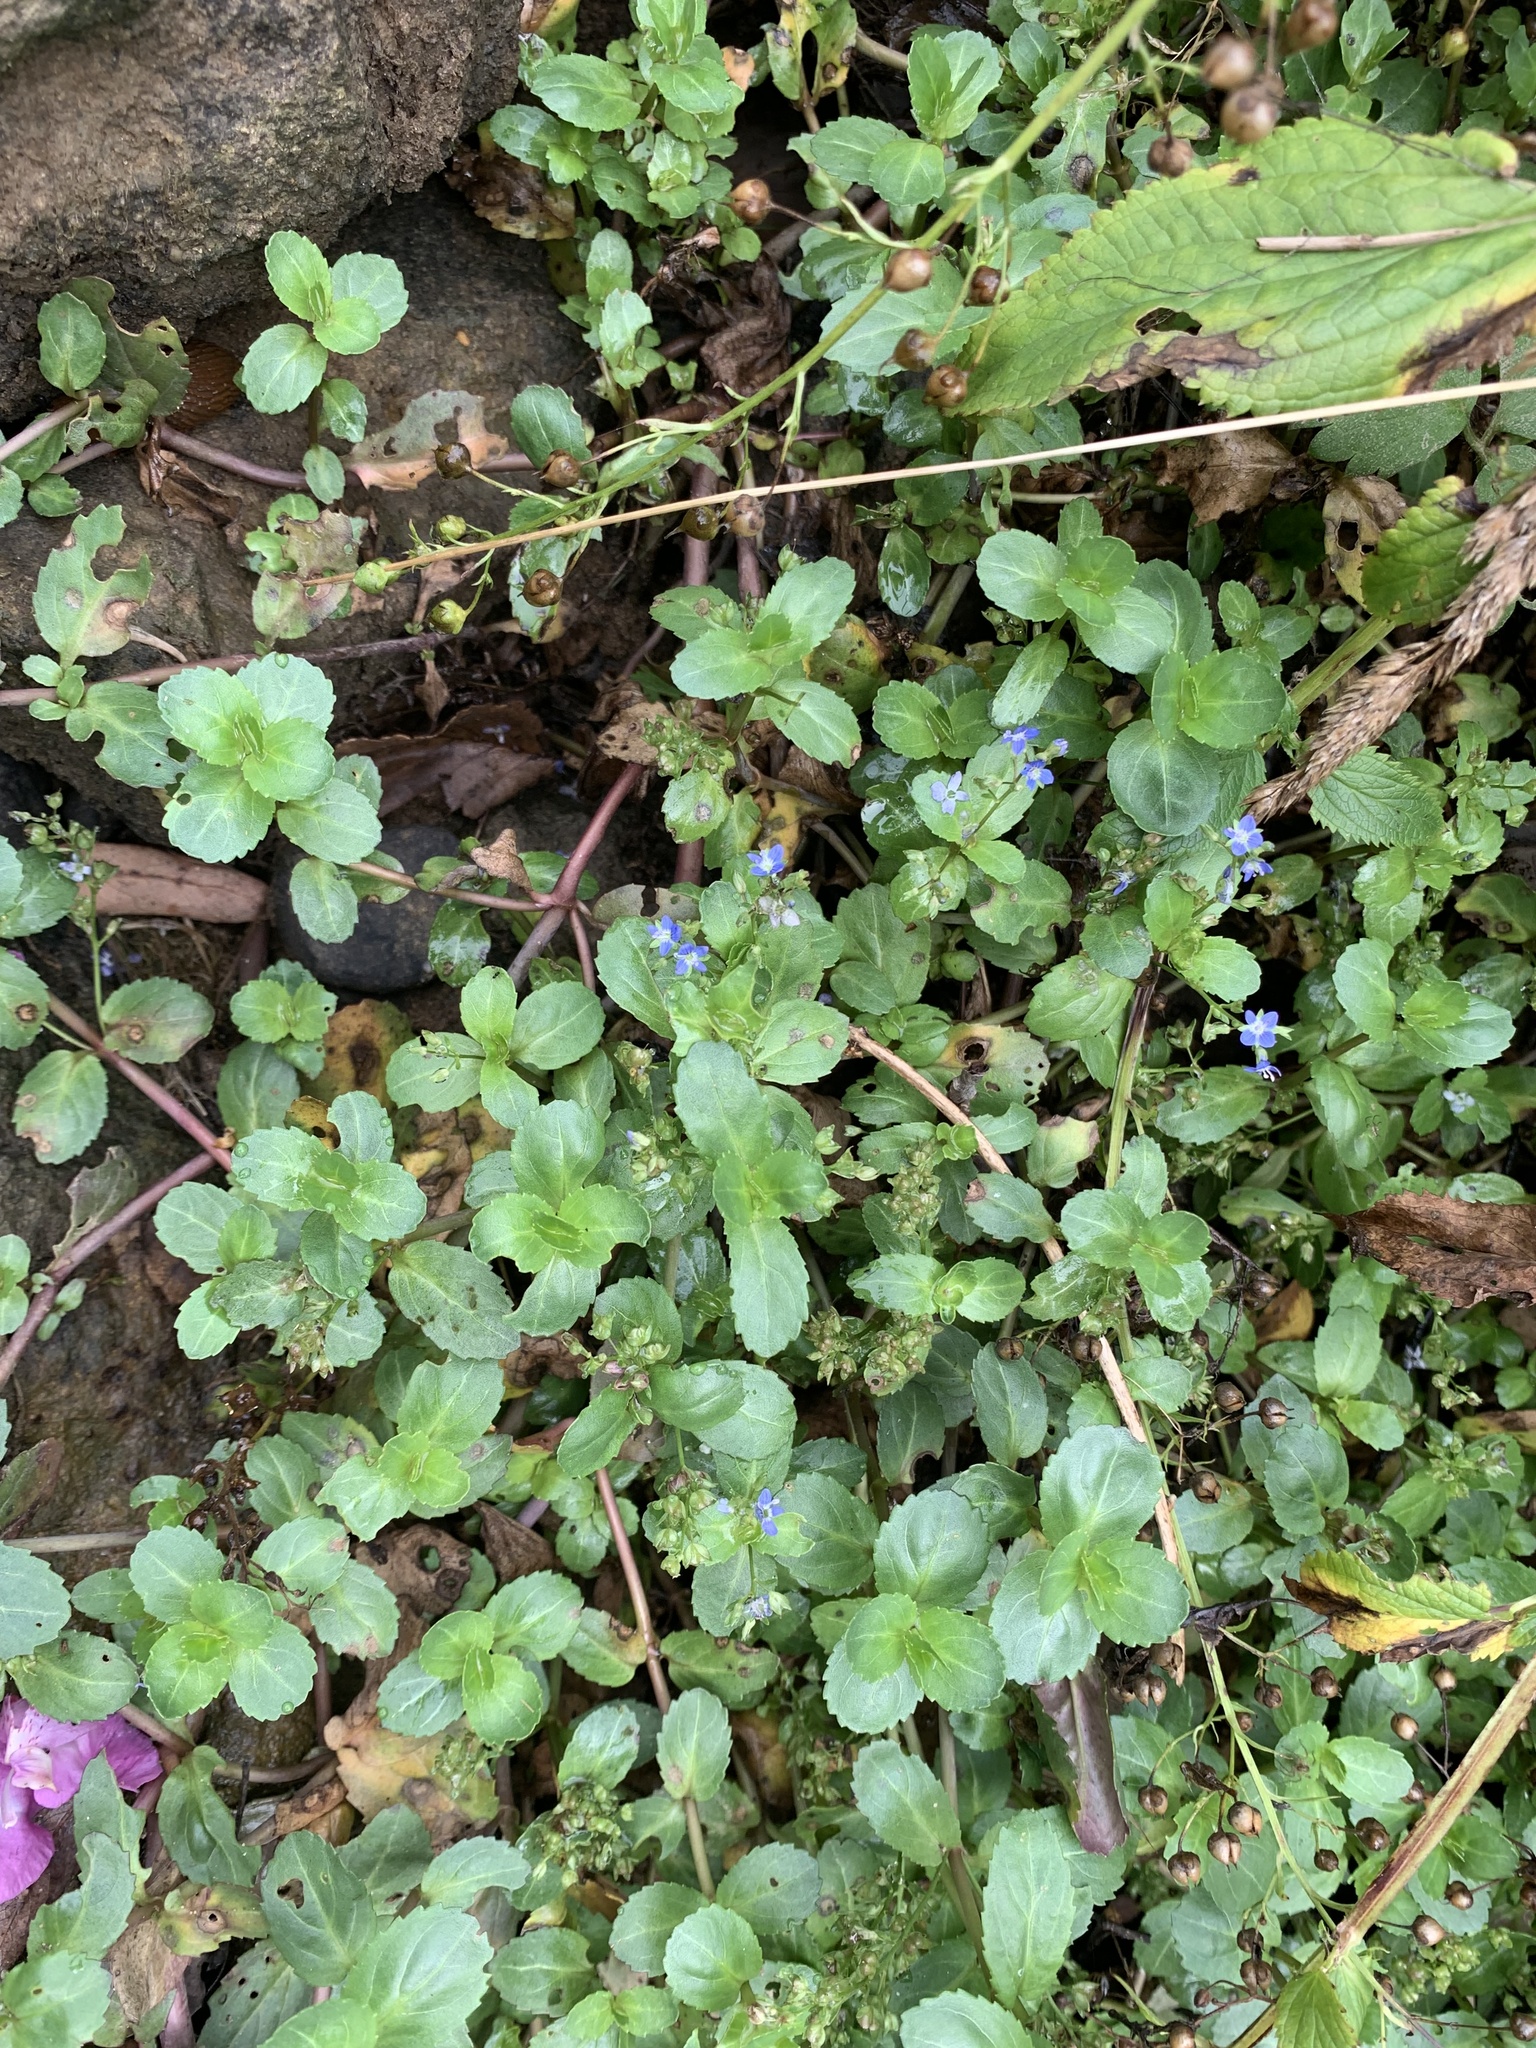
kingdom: Plantae
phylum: Tracheophyta
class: Magnoliopsida
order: Lamiales
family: Plantaginaceae
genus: Veronica
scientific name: Veronica beccabunga
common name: Brooklime
